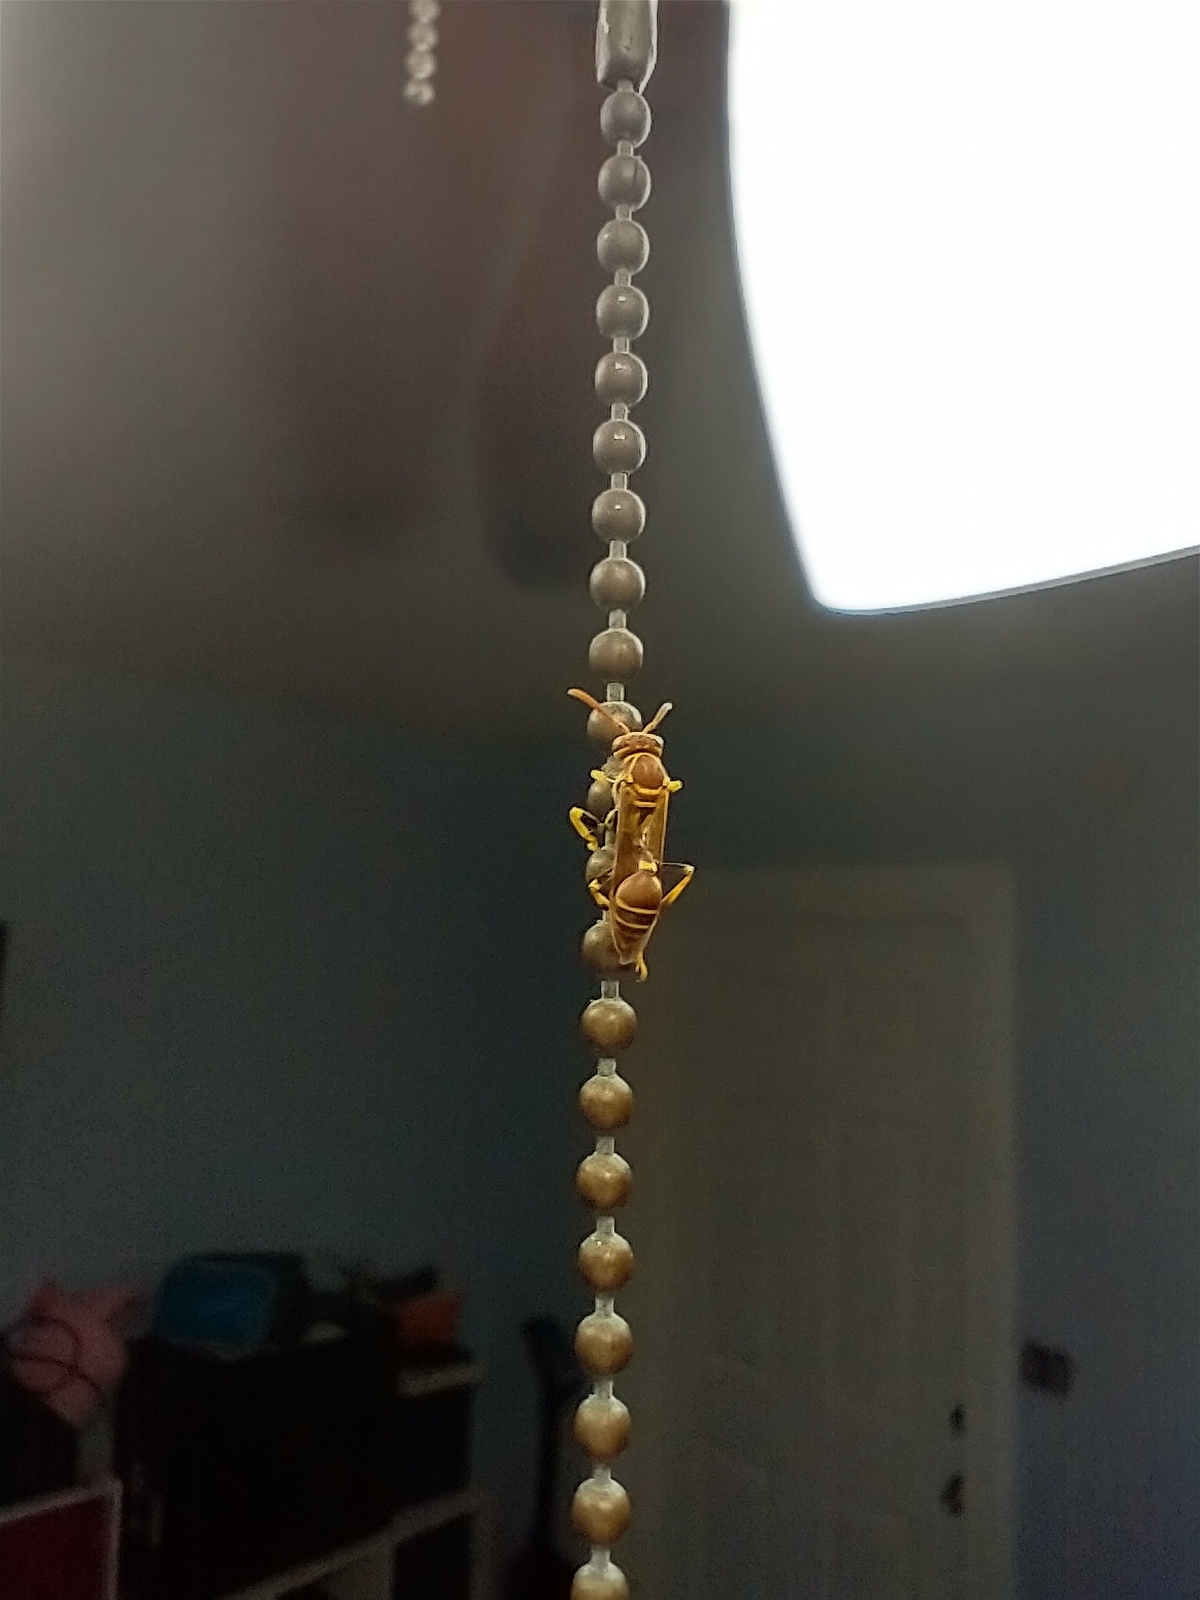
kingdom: Animalia
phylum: Arthropoda
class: Insecta
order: Hymenoptera
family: Vespidae
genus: Mischocyttarus
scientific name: Mischocyttarus mexicanus
